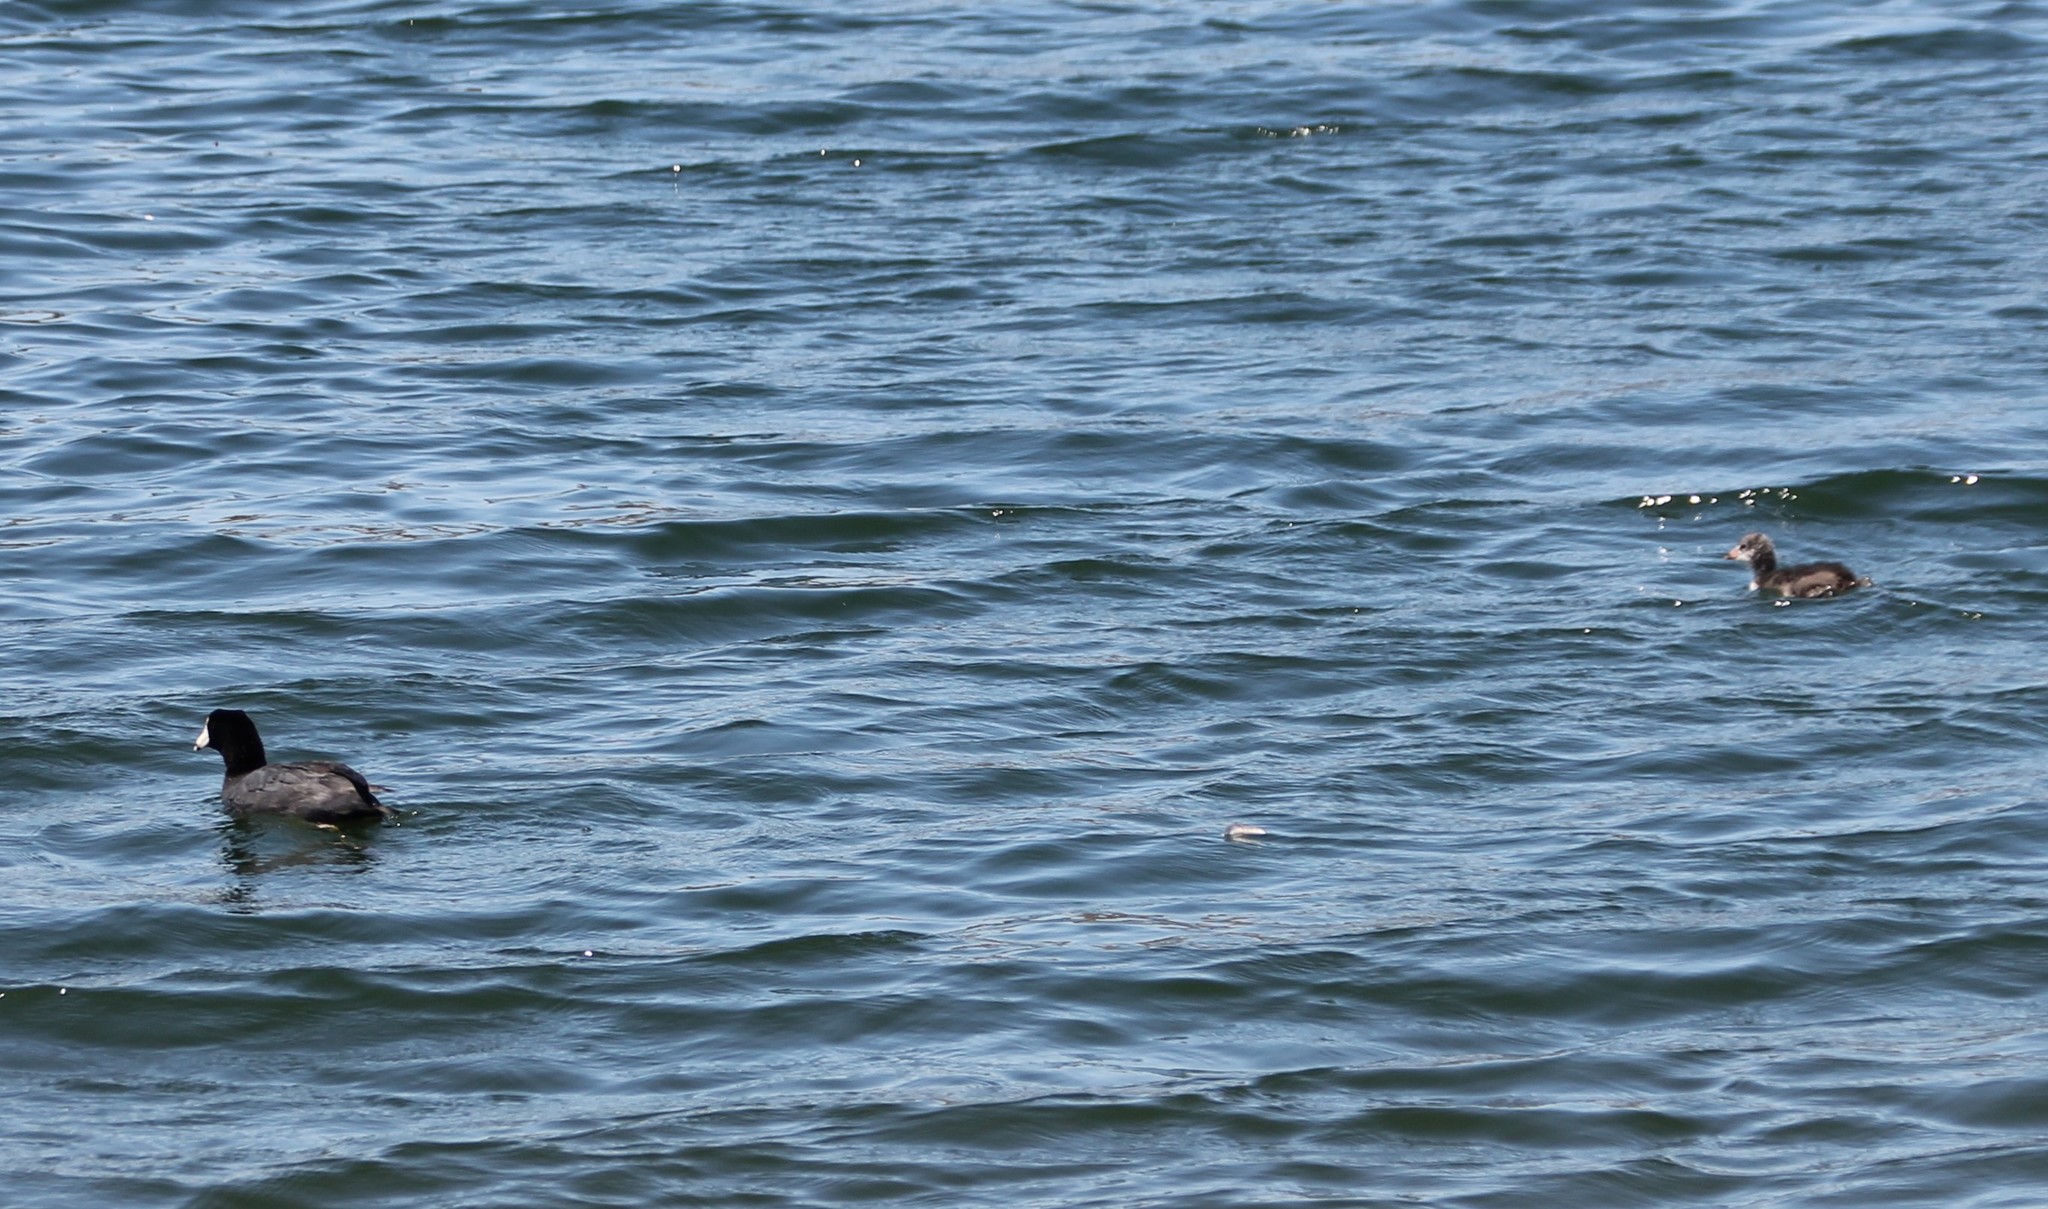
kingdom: Animalia
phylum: Chordata
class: Aves
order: Gruiformes
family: Rallidae
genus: Fulica
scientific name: Fulica americana
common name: American coot
